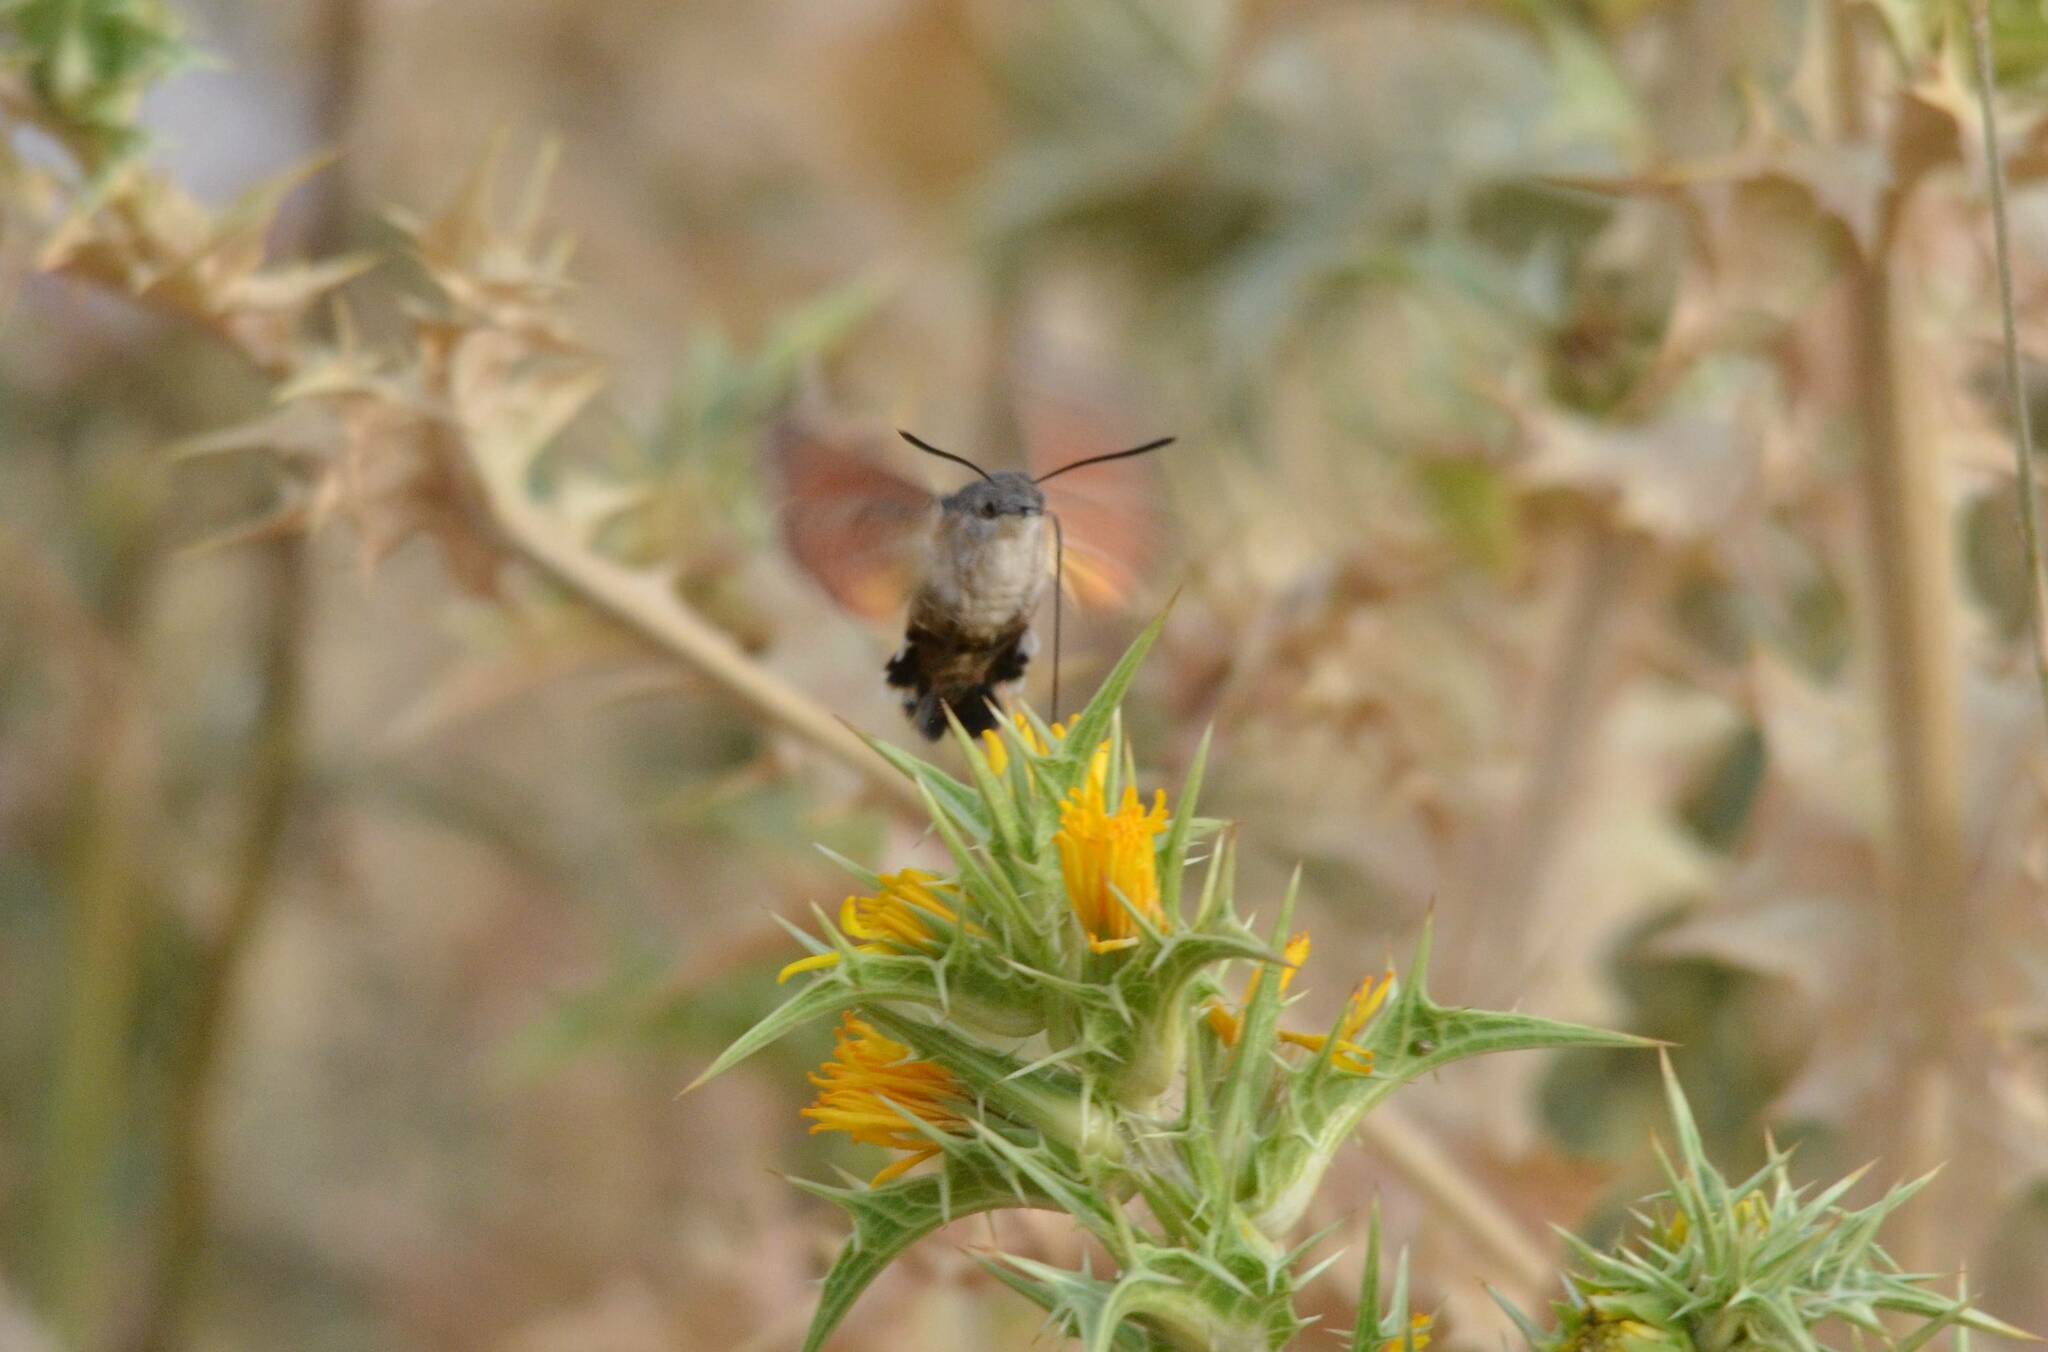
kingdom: Animalia
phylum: Arthropoda
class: Insecta
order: Lepidoptera
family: Sphingidae
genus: Macroglossum
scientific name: Macroglossum stellatarum
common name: Humming-bird hawk-moth
